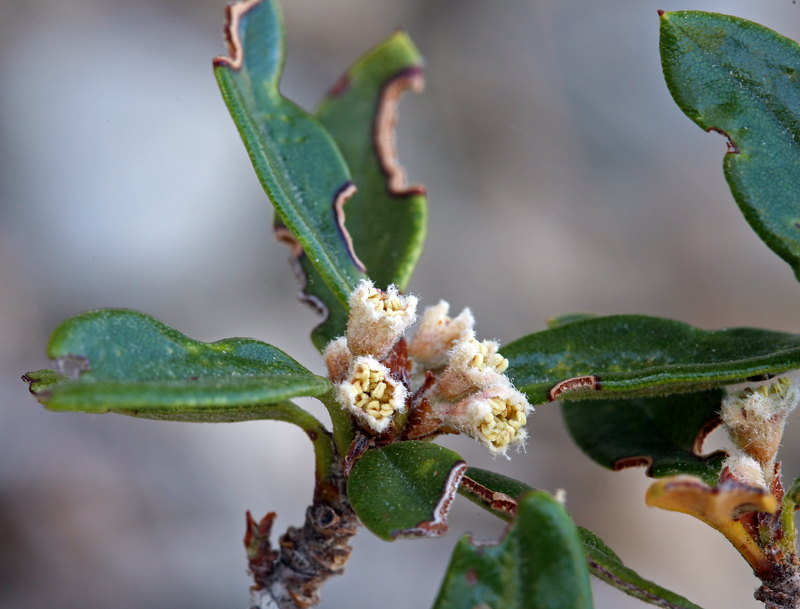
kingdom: Plantae
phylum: Tracheophyta
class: Magnoliopsida
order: Rosales
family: Rosaceae
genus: Cercocarpus
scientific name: Cercocarpus ledifolius
